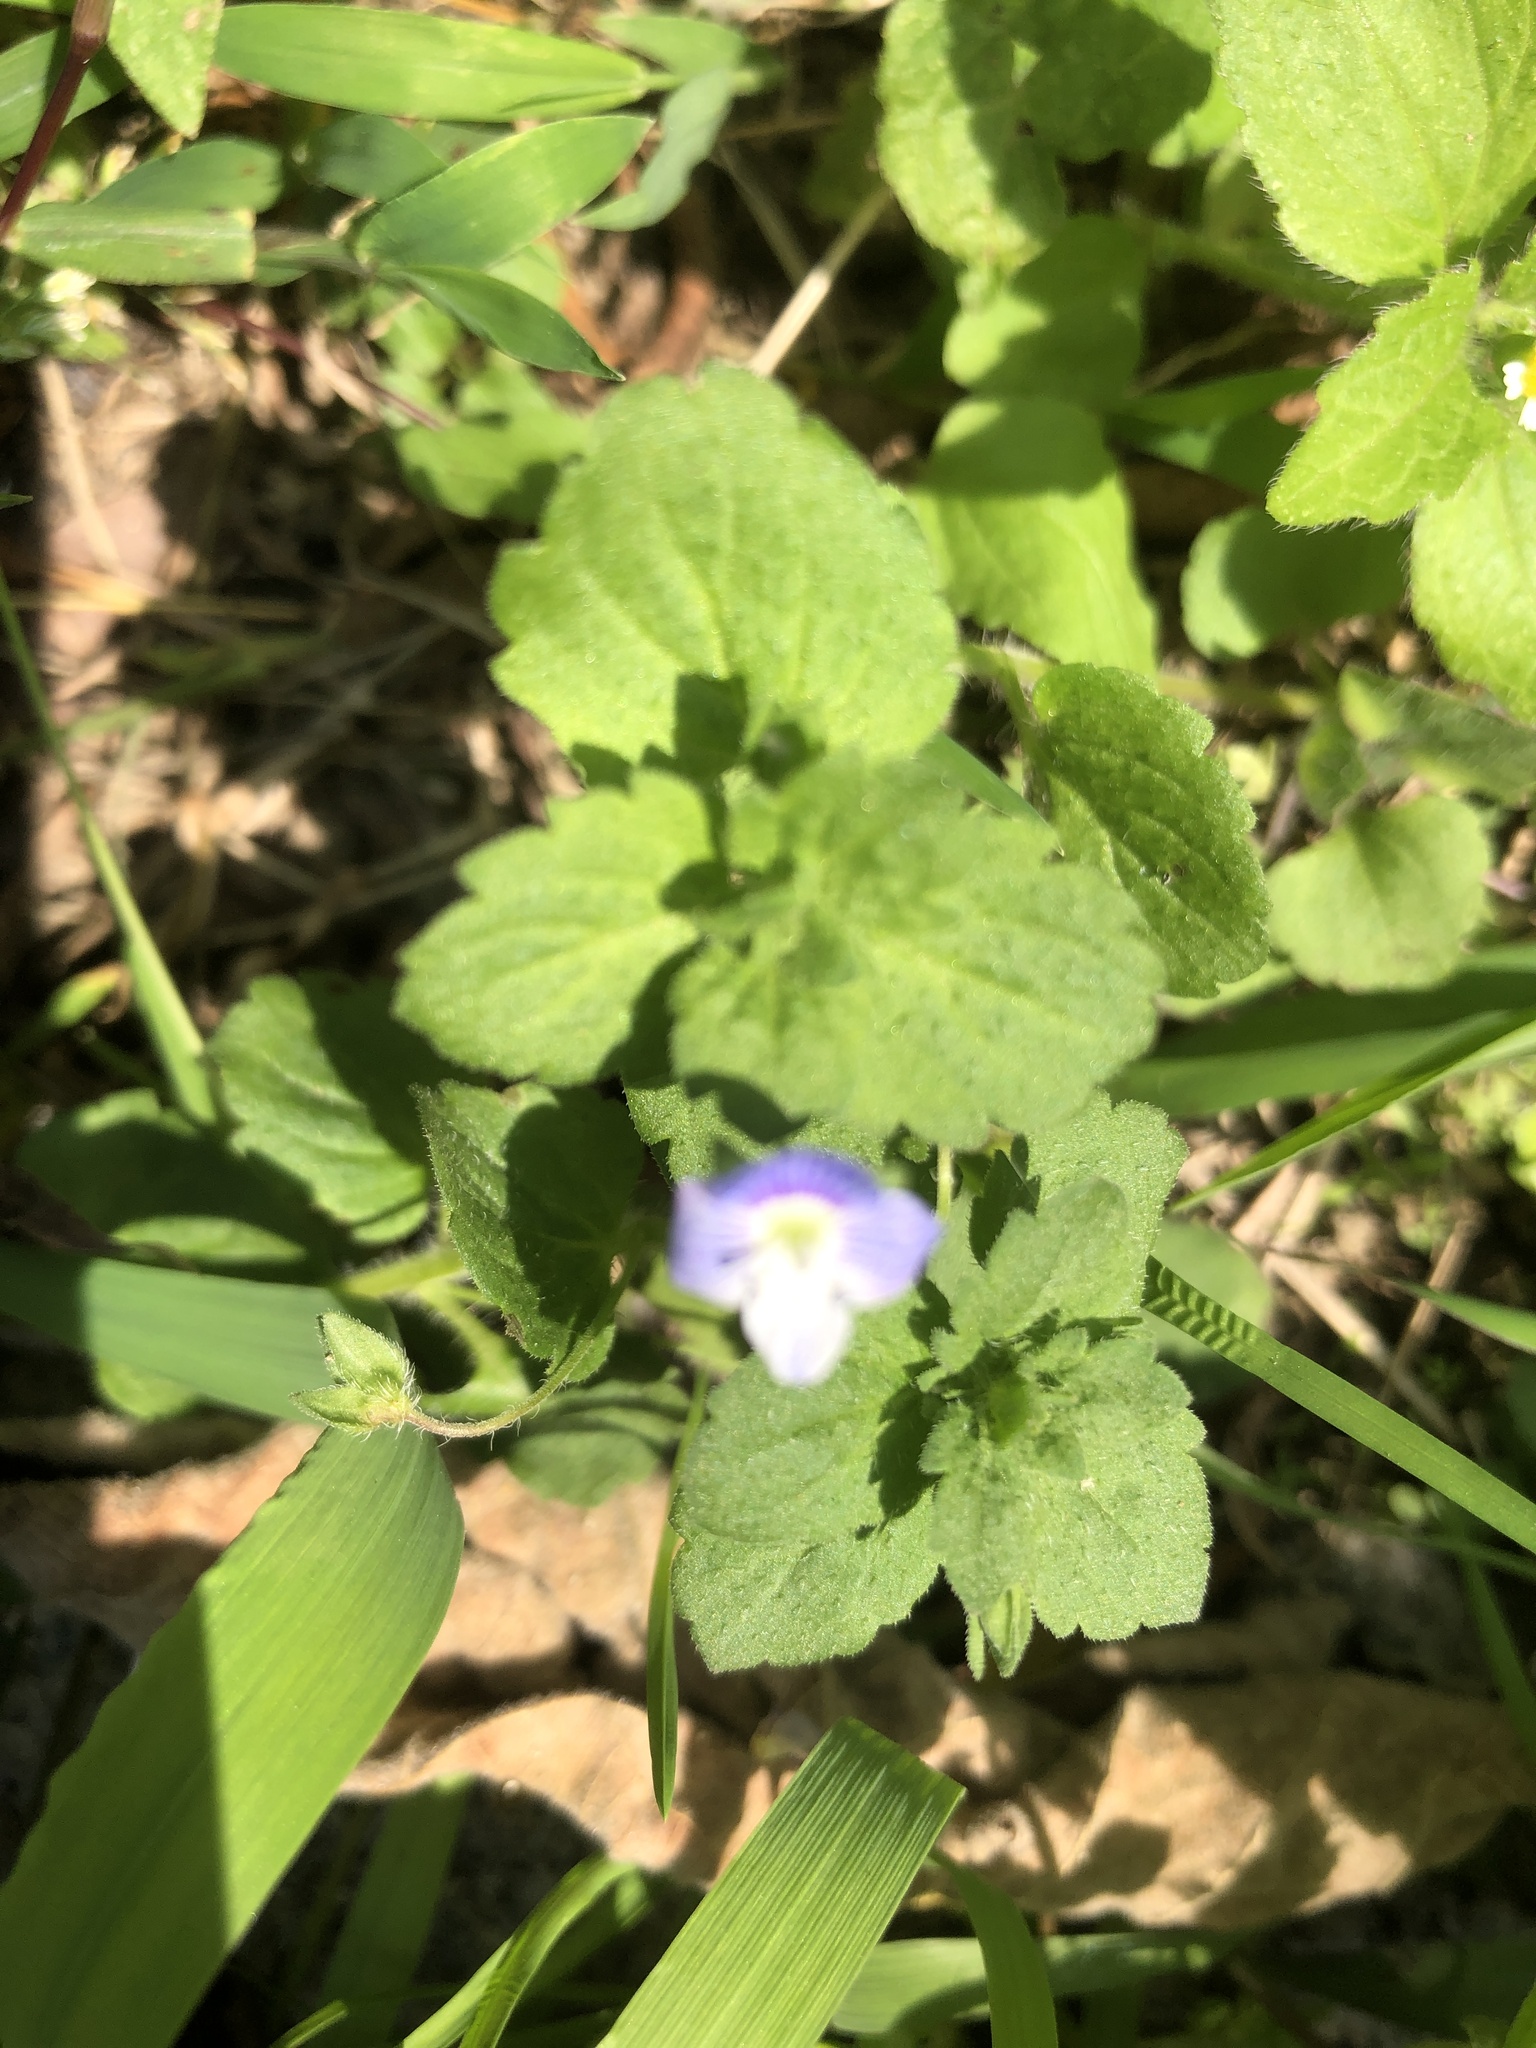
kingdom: Plantae
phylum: Tracheophyta
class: Magnoliopsida
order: Lamiales
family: Plantaginaceae
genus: Veronica
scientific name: Veronica persica
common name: Common field-speedwell
